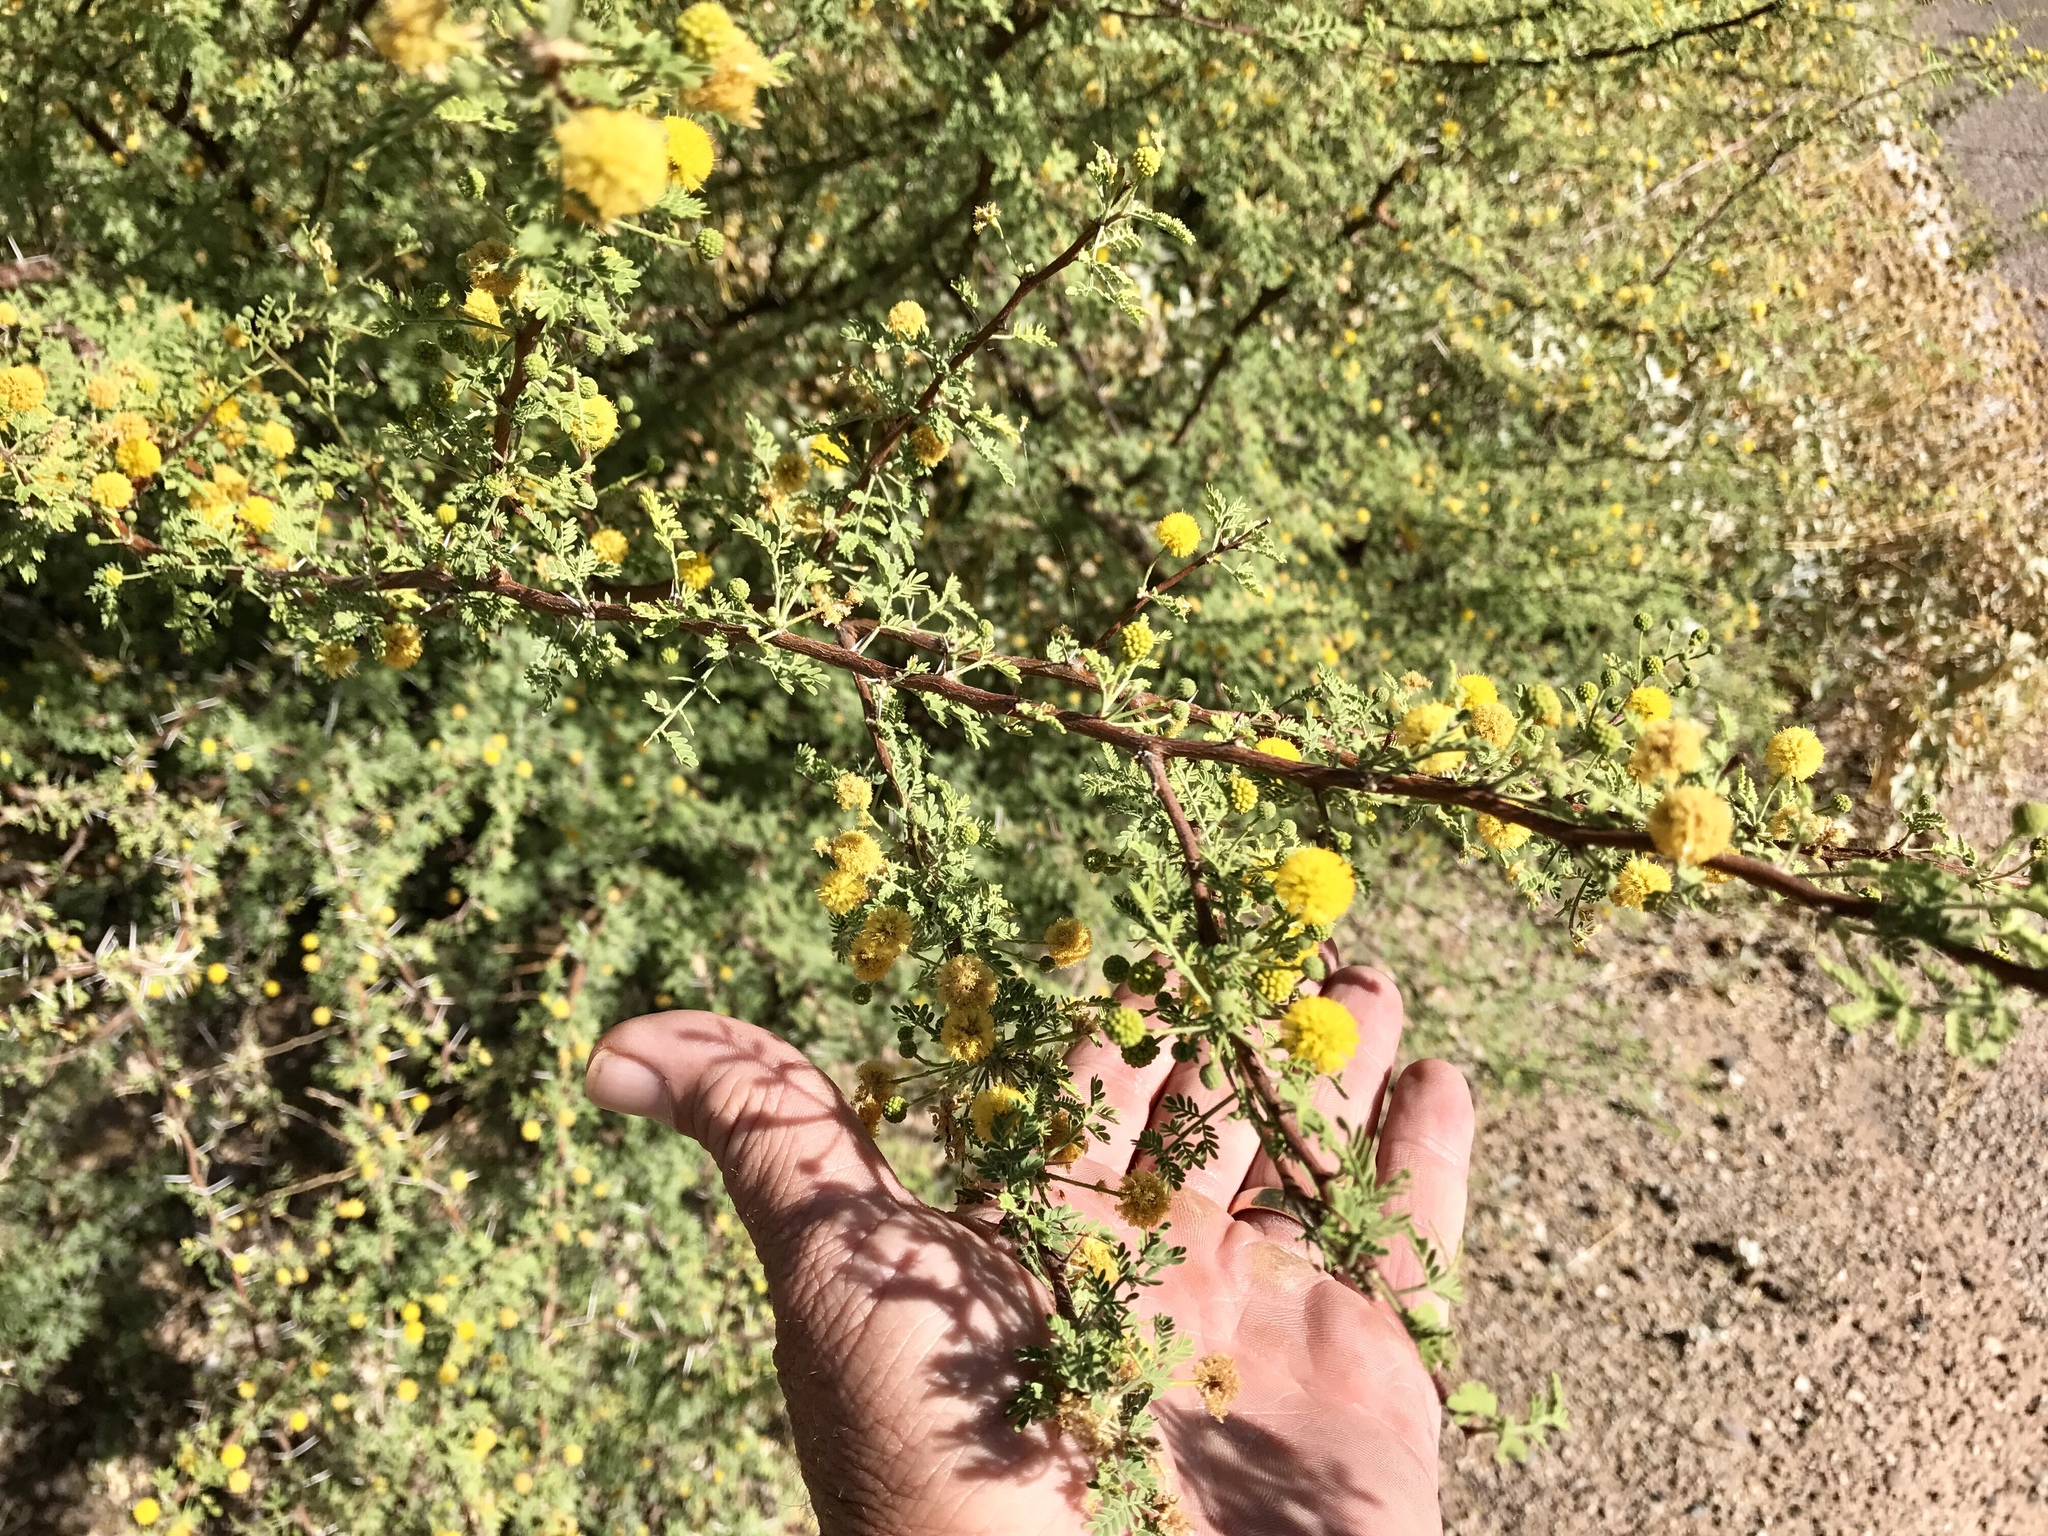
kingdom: Plantae
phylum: Tracheophyta
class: Magnoliopsida
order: Fabales
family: Fabaceae
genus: Vachellia
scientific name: Vachellia constricta
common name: Mescat acacia
